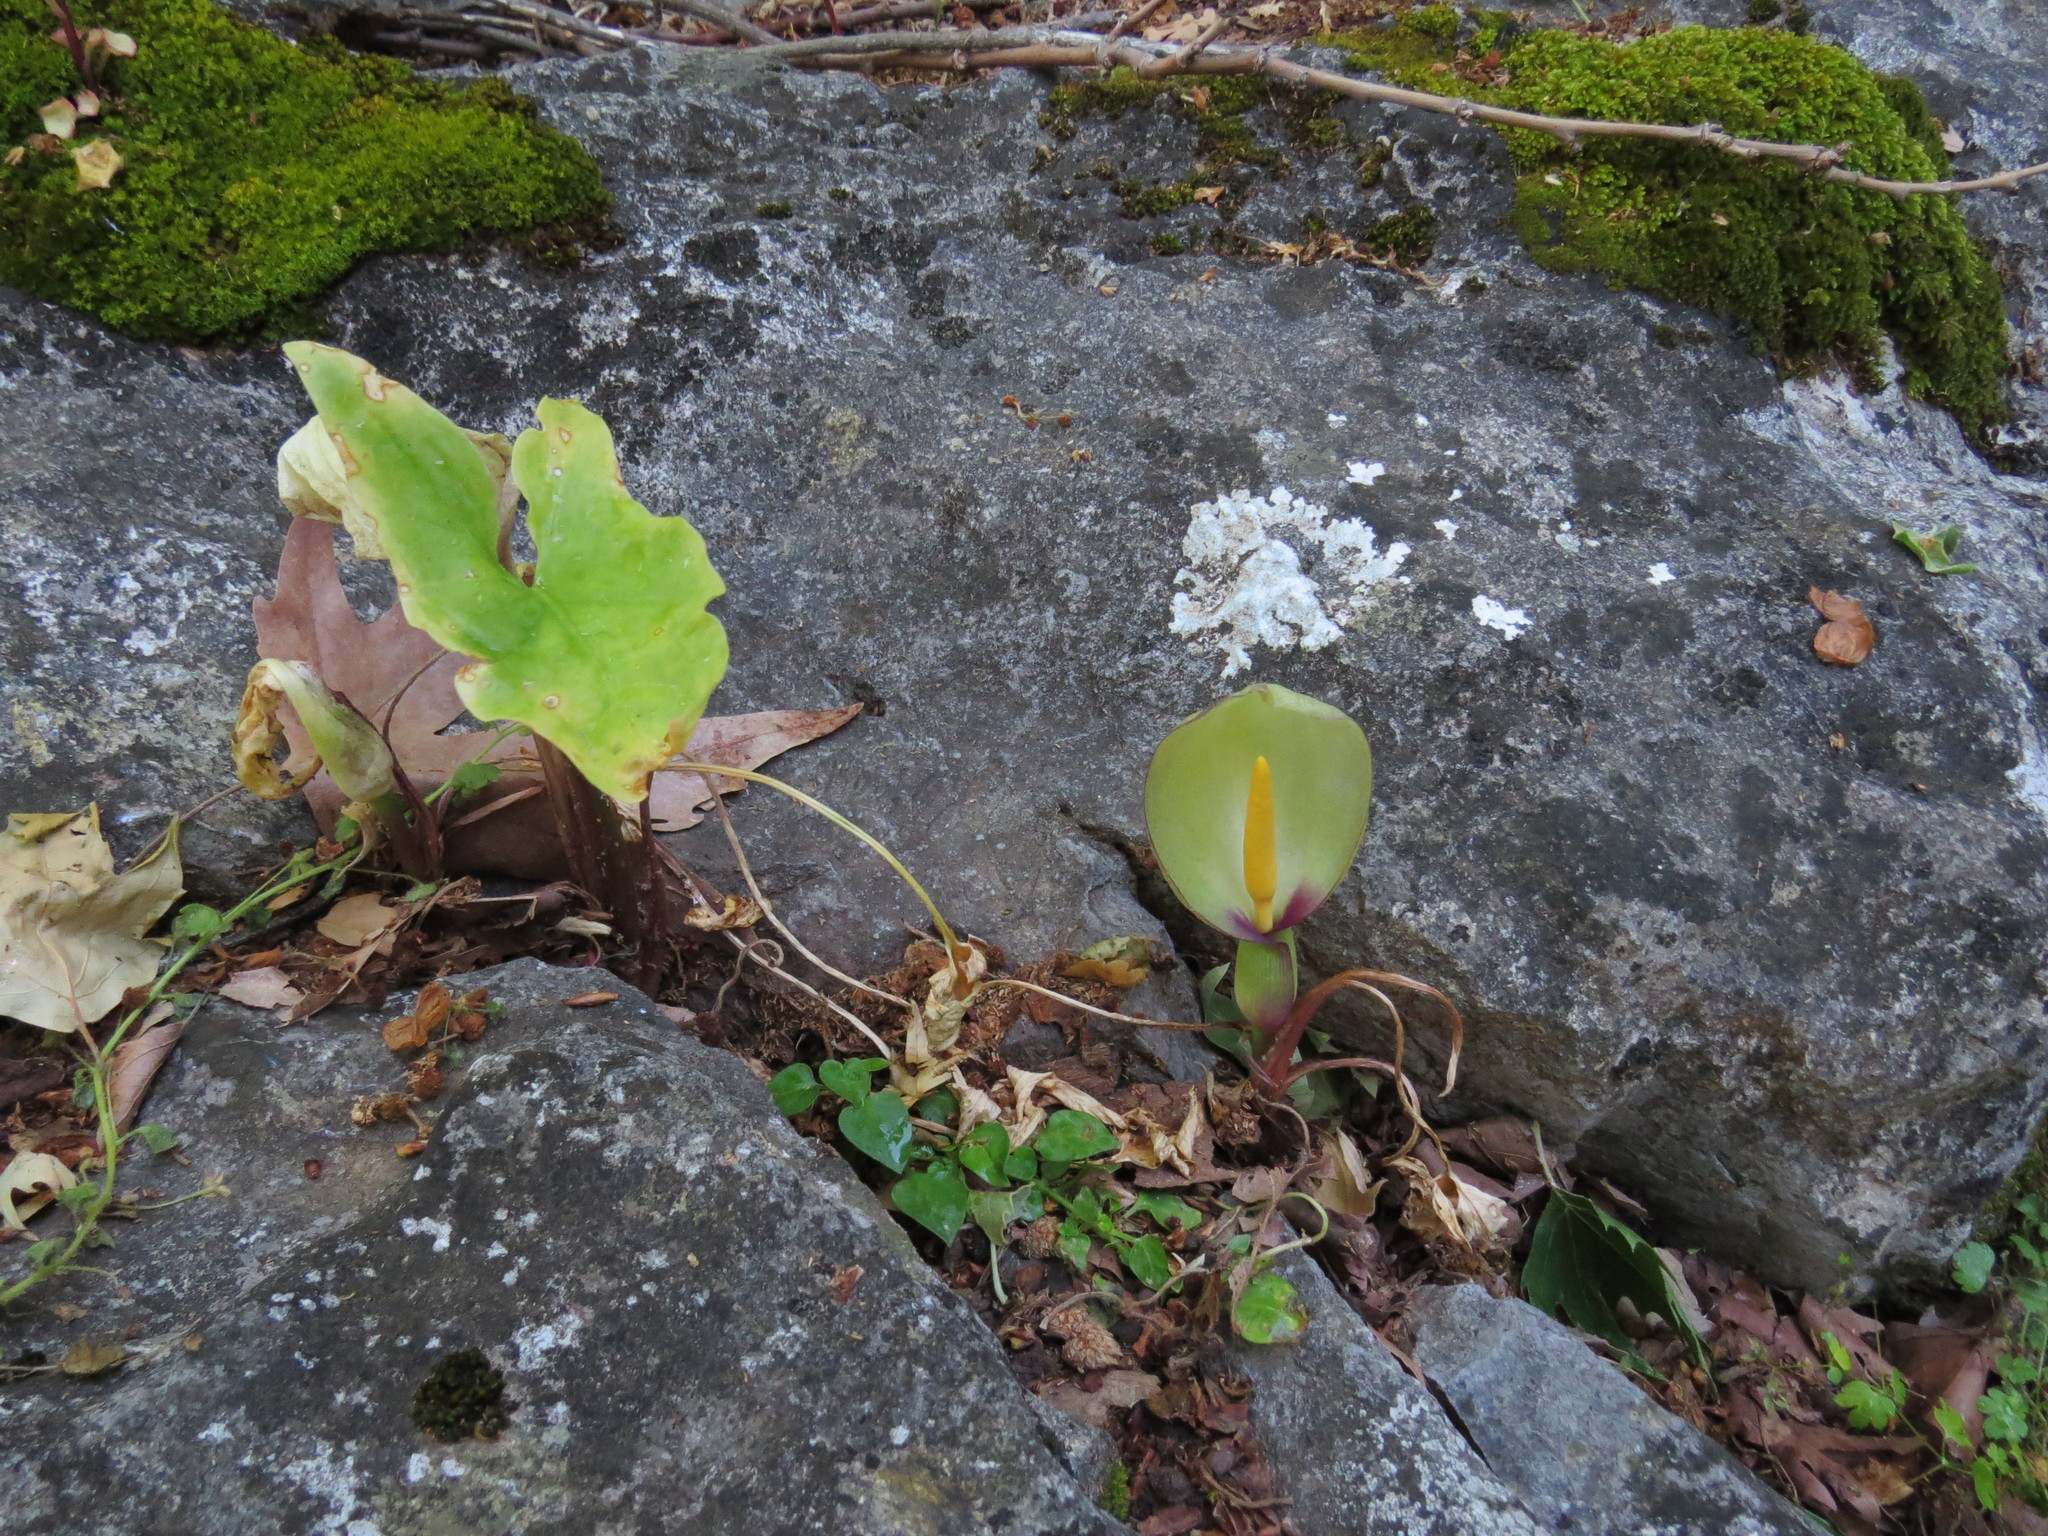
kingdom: Plantae
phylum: Tracheophyta
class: Liliopsida
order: Alismatales
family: Araceae
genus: Arum
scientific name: Arum concinnatum
